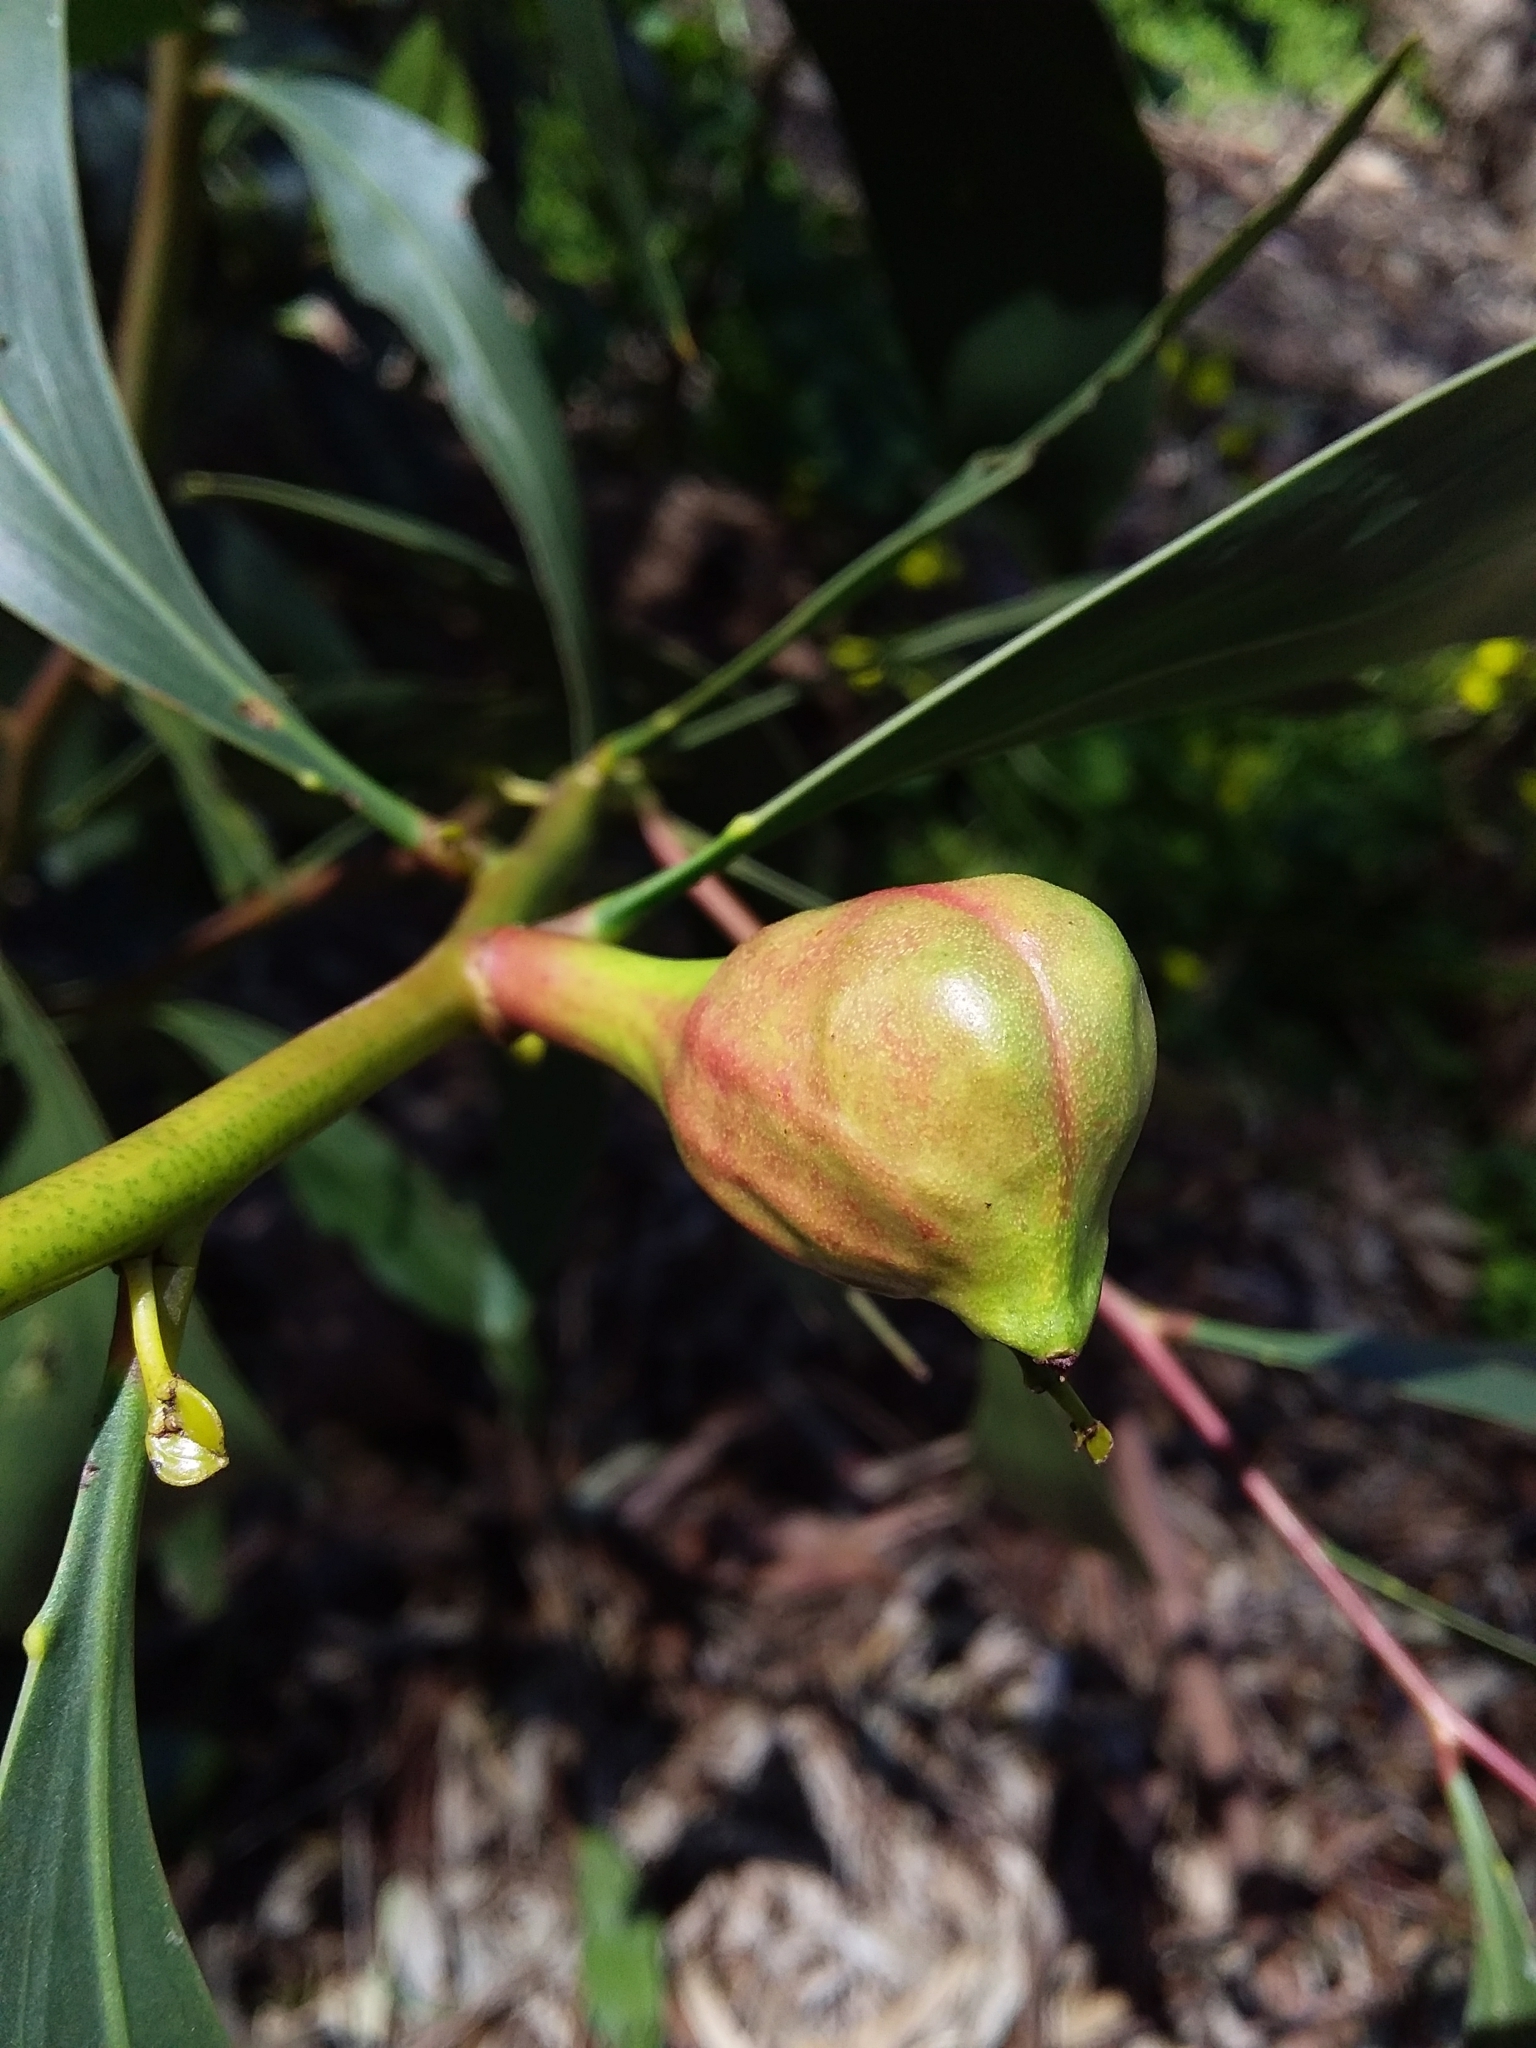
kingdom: Animalia
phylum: Arthropoda
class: Insecta
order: Hymenoptera
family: Pteromalidae
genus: Trichilogaster
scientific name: Trichilogaster signiventris
